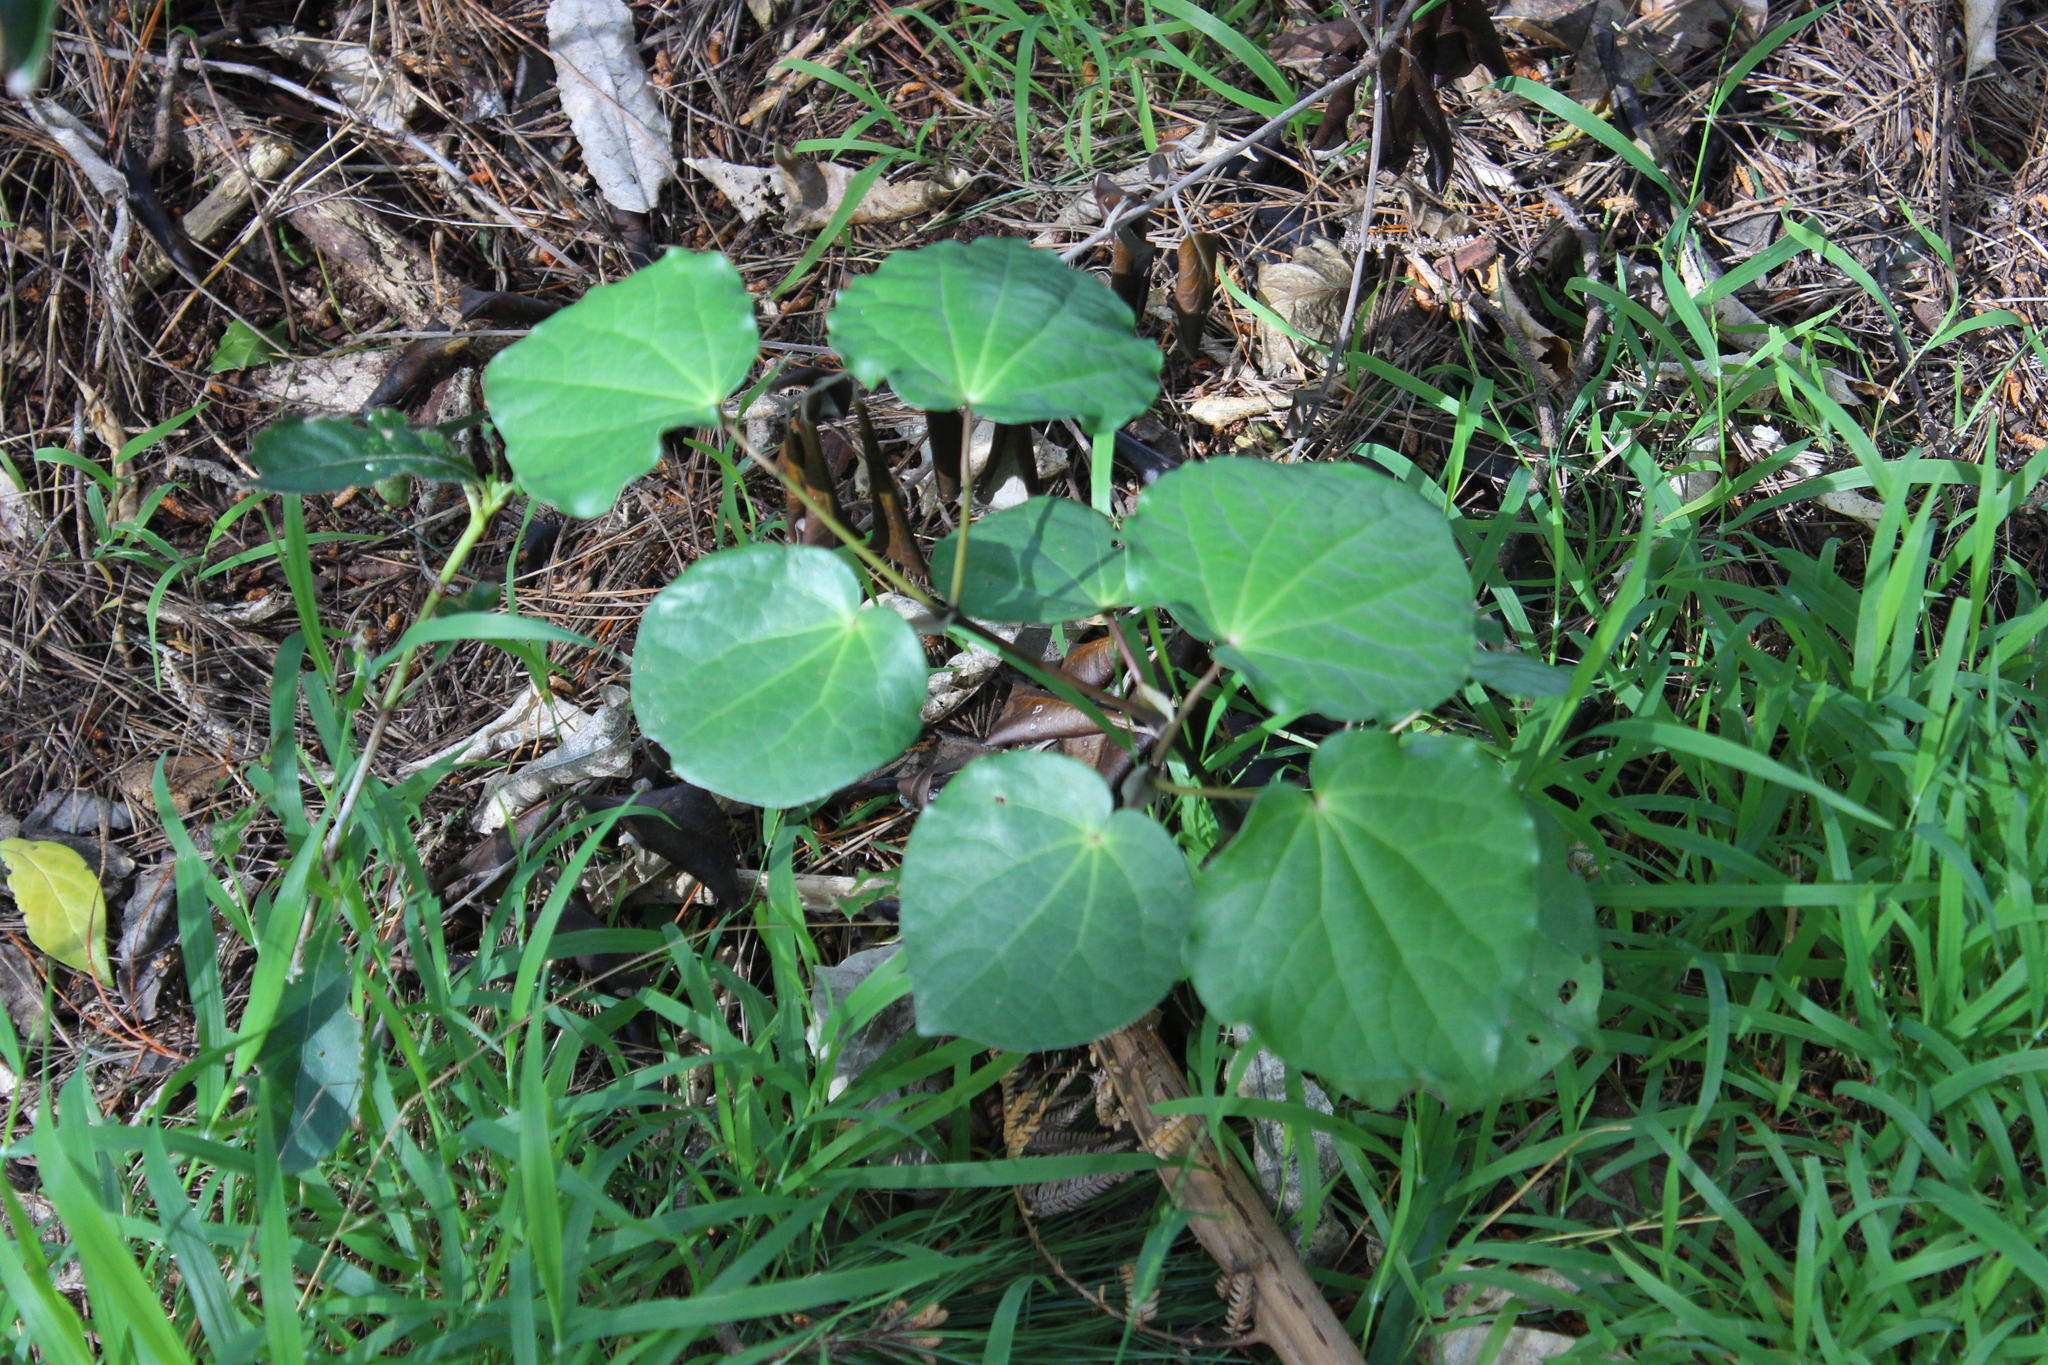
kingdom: Plantae
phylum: Tracheophyta
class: Magnoliopsida
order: Piperales
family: Piperaceae
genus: Macropiper
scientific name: Macropiper excelsum
